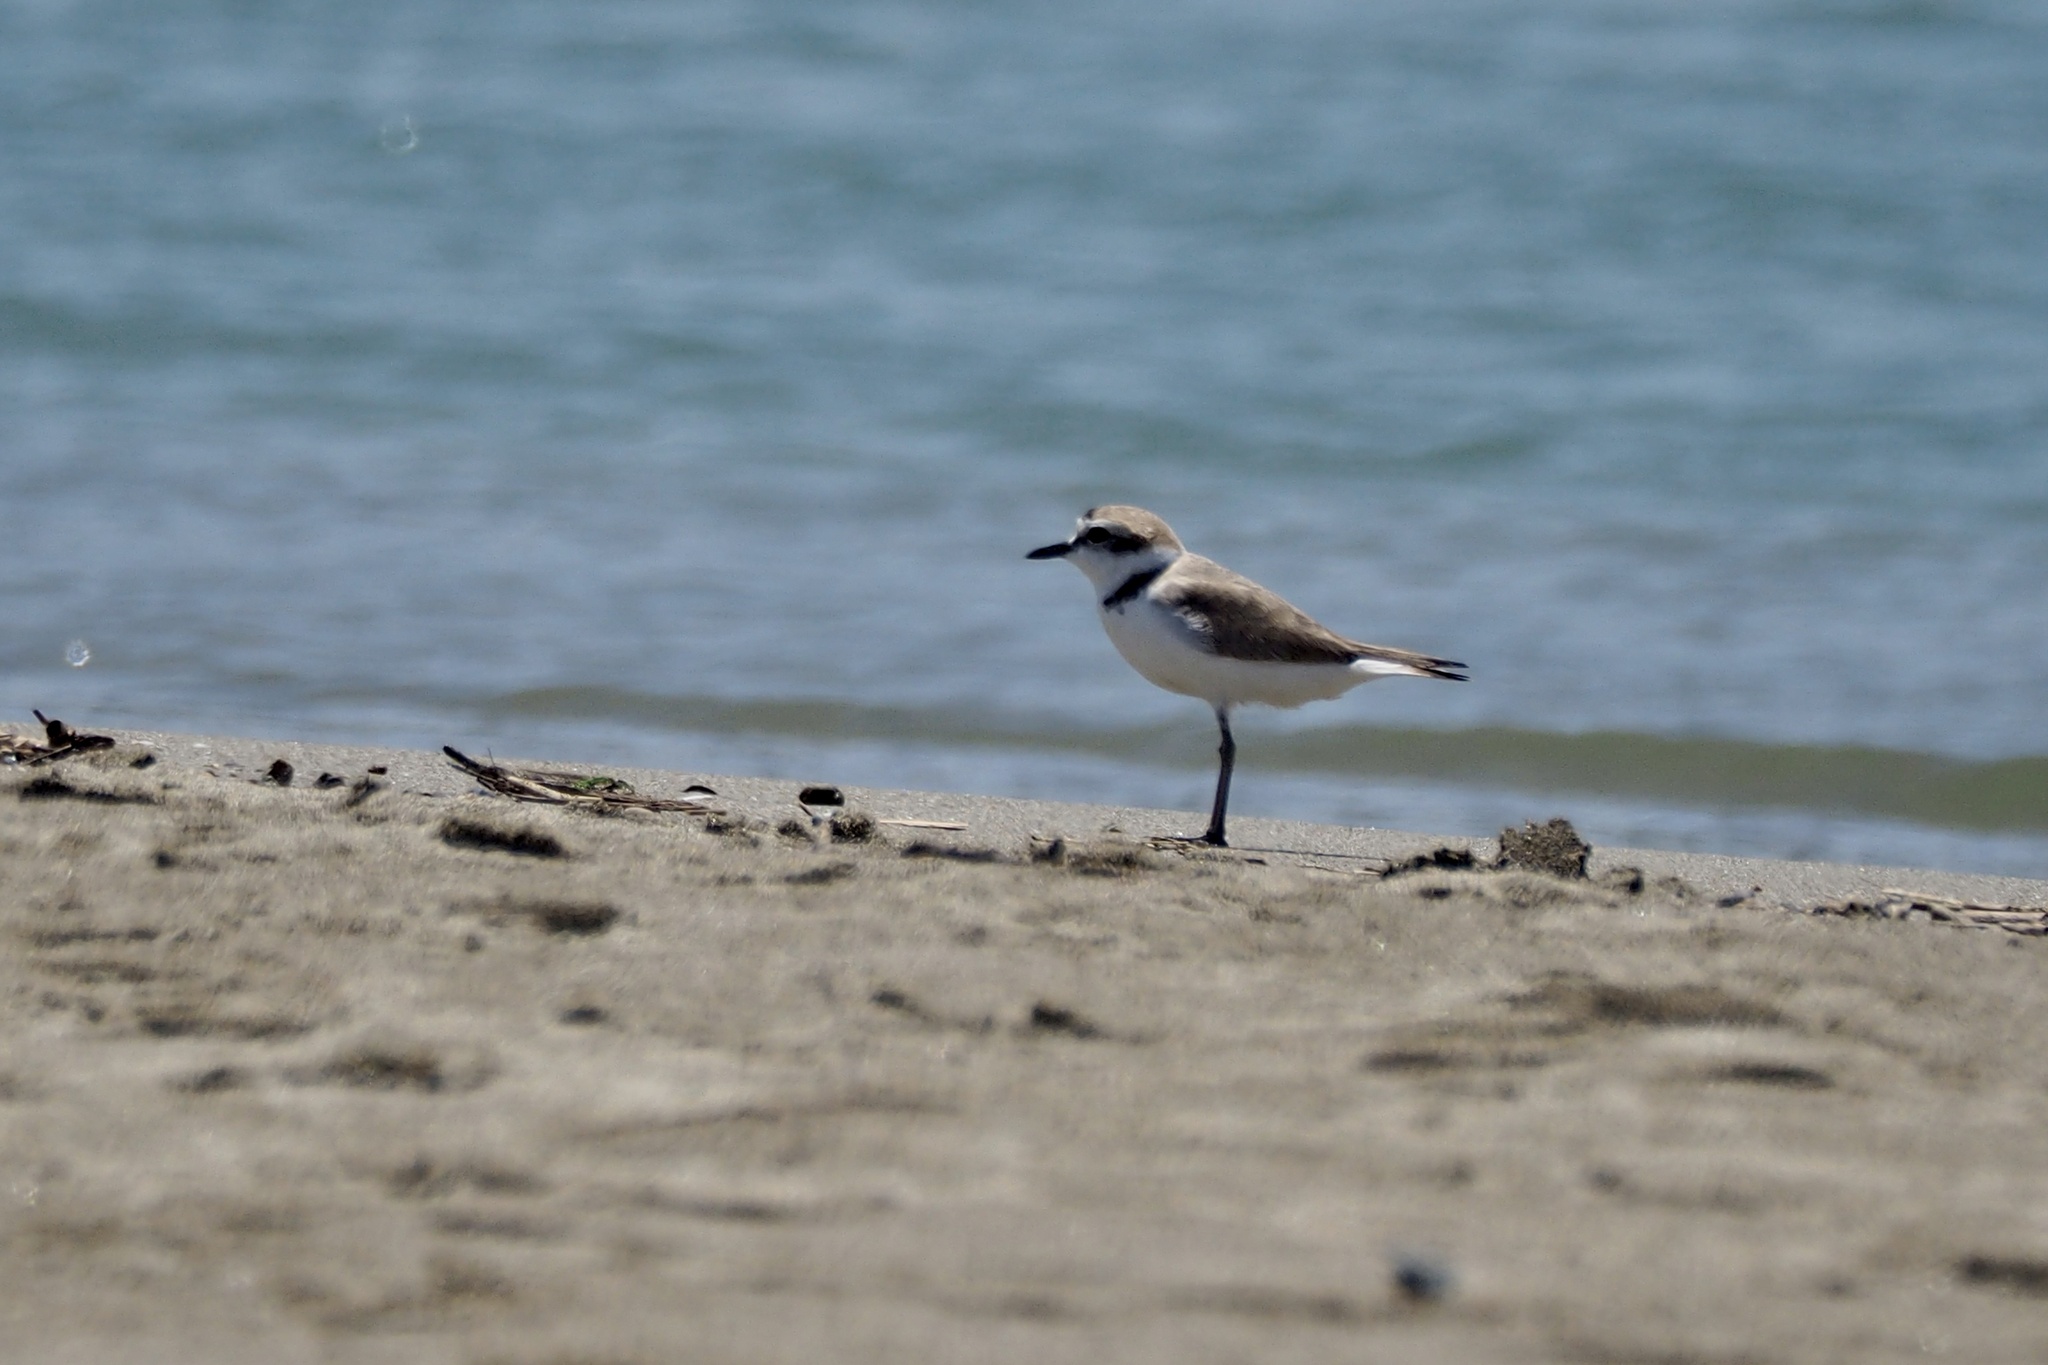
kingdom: Animalia
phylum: Chordata
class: Aves
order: Charadriiformes
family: Charadriidae
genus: Charadrius
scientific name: Charadrius alexandrinus
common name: Kentish plover
